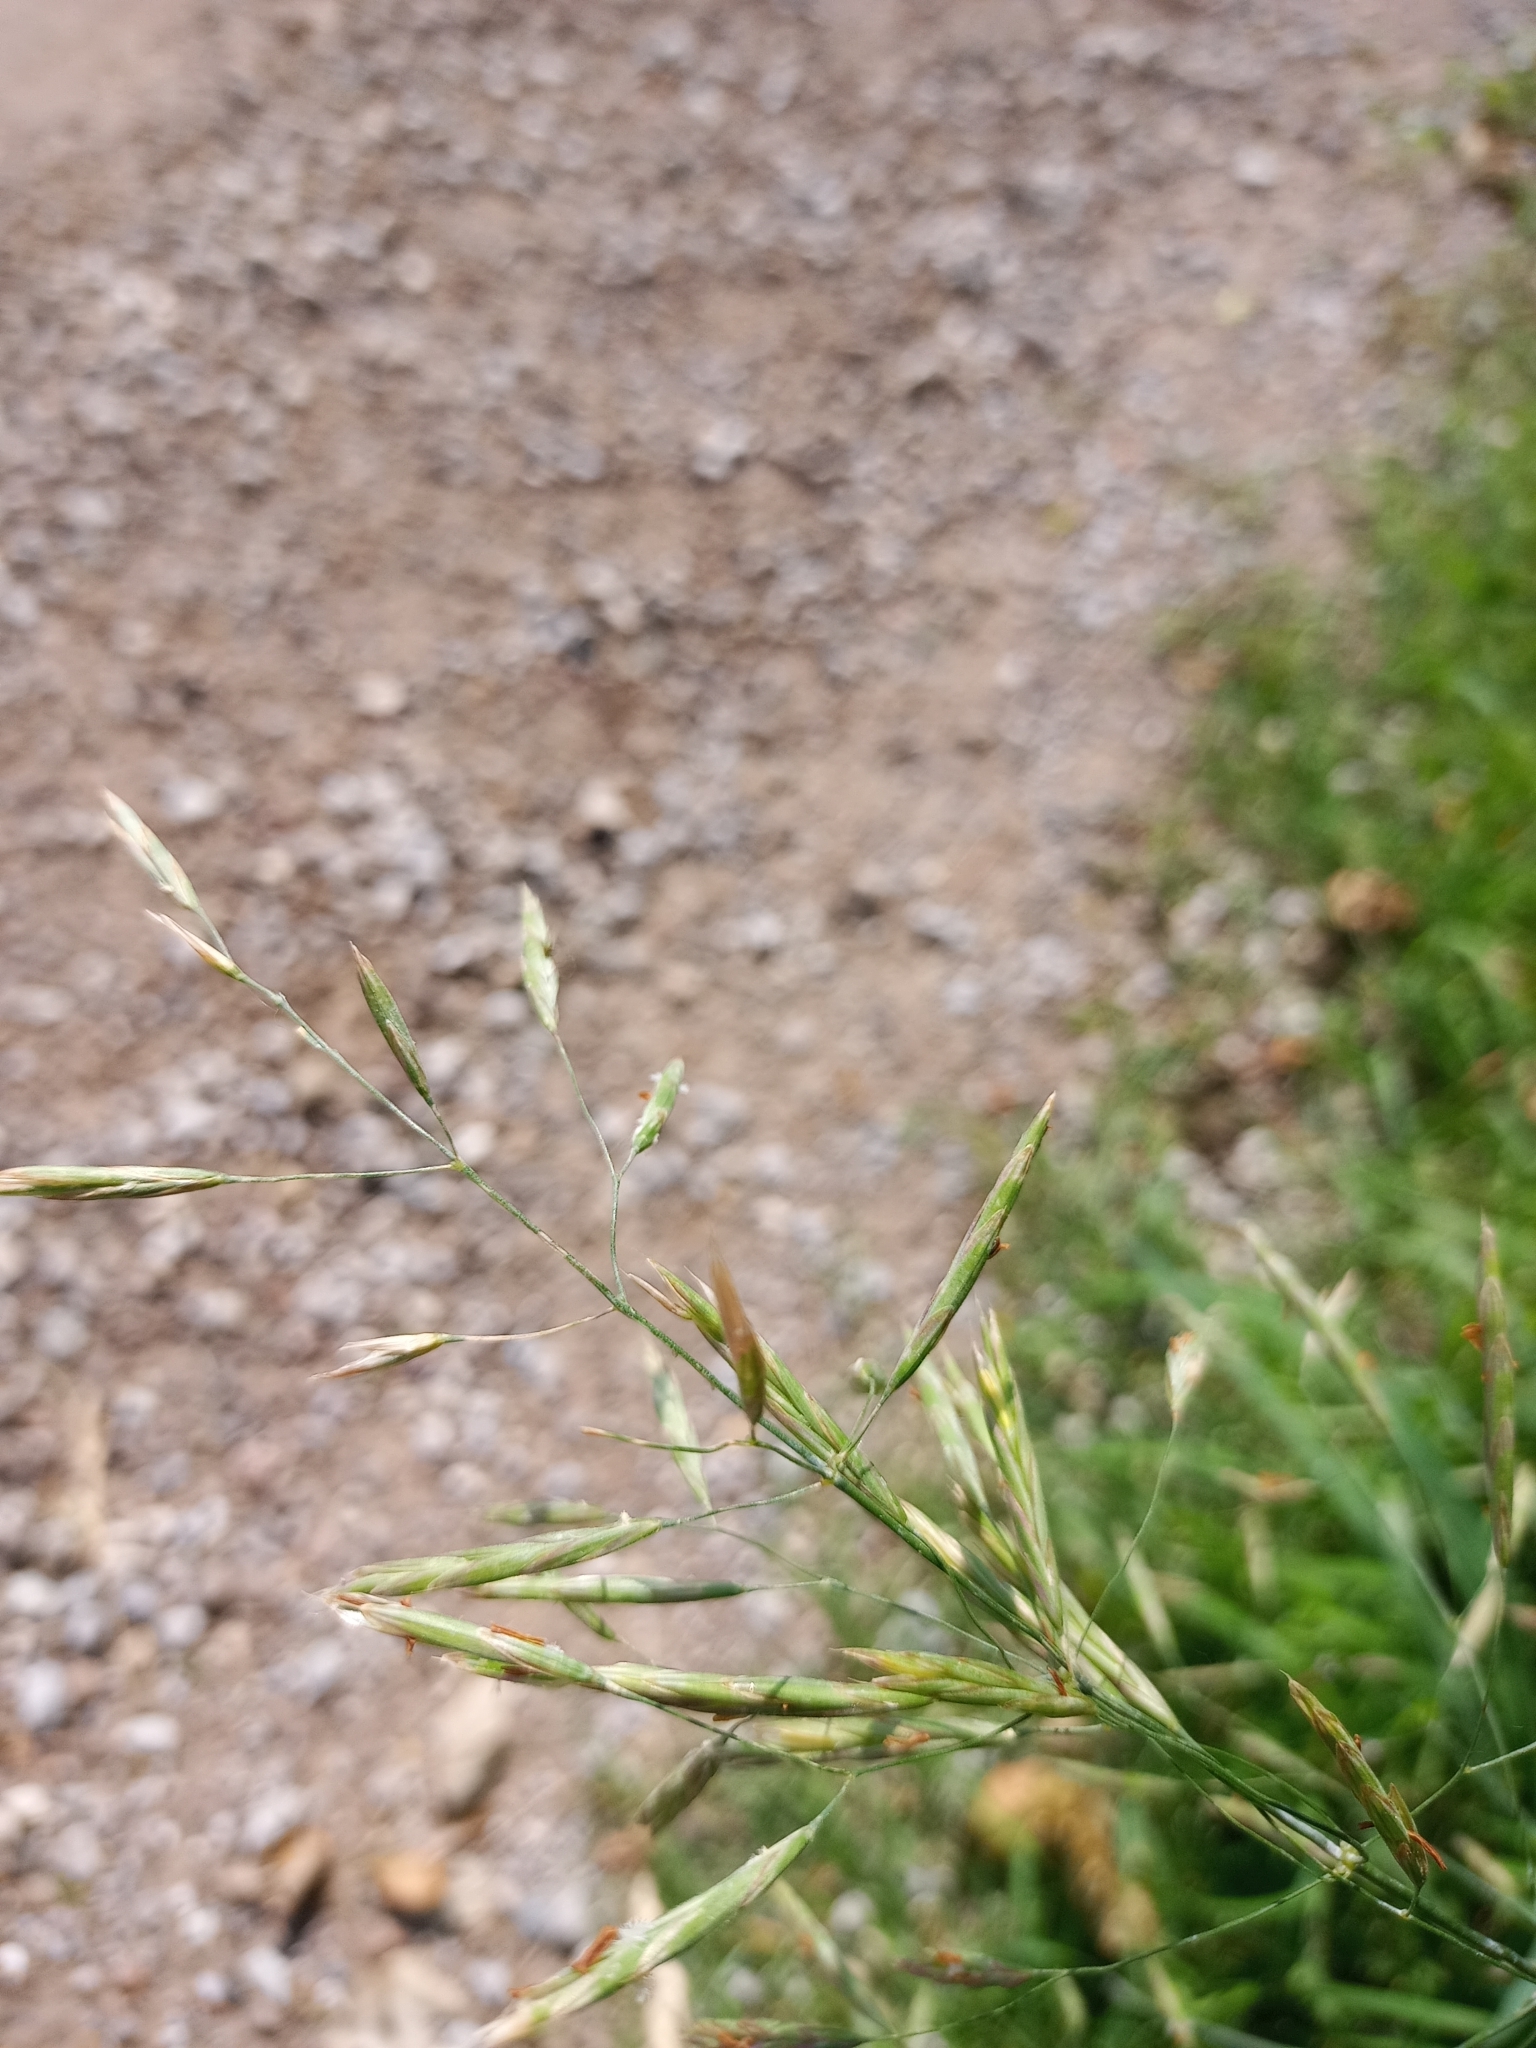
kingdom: Plantae
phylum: Tracheophyta
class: Liliopsida
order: Poales
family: Poaceae
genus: Bromus
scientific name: Bromus inermis
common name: Smooth brome
